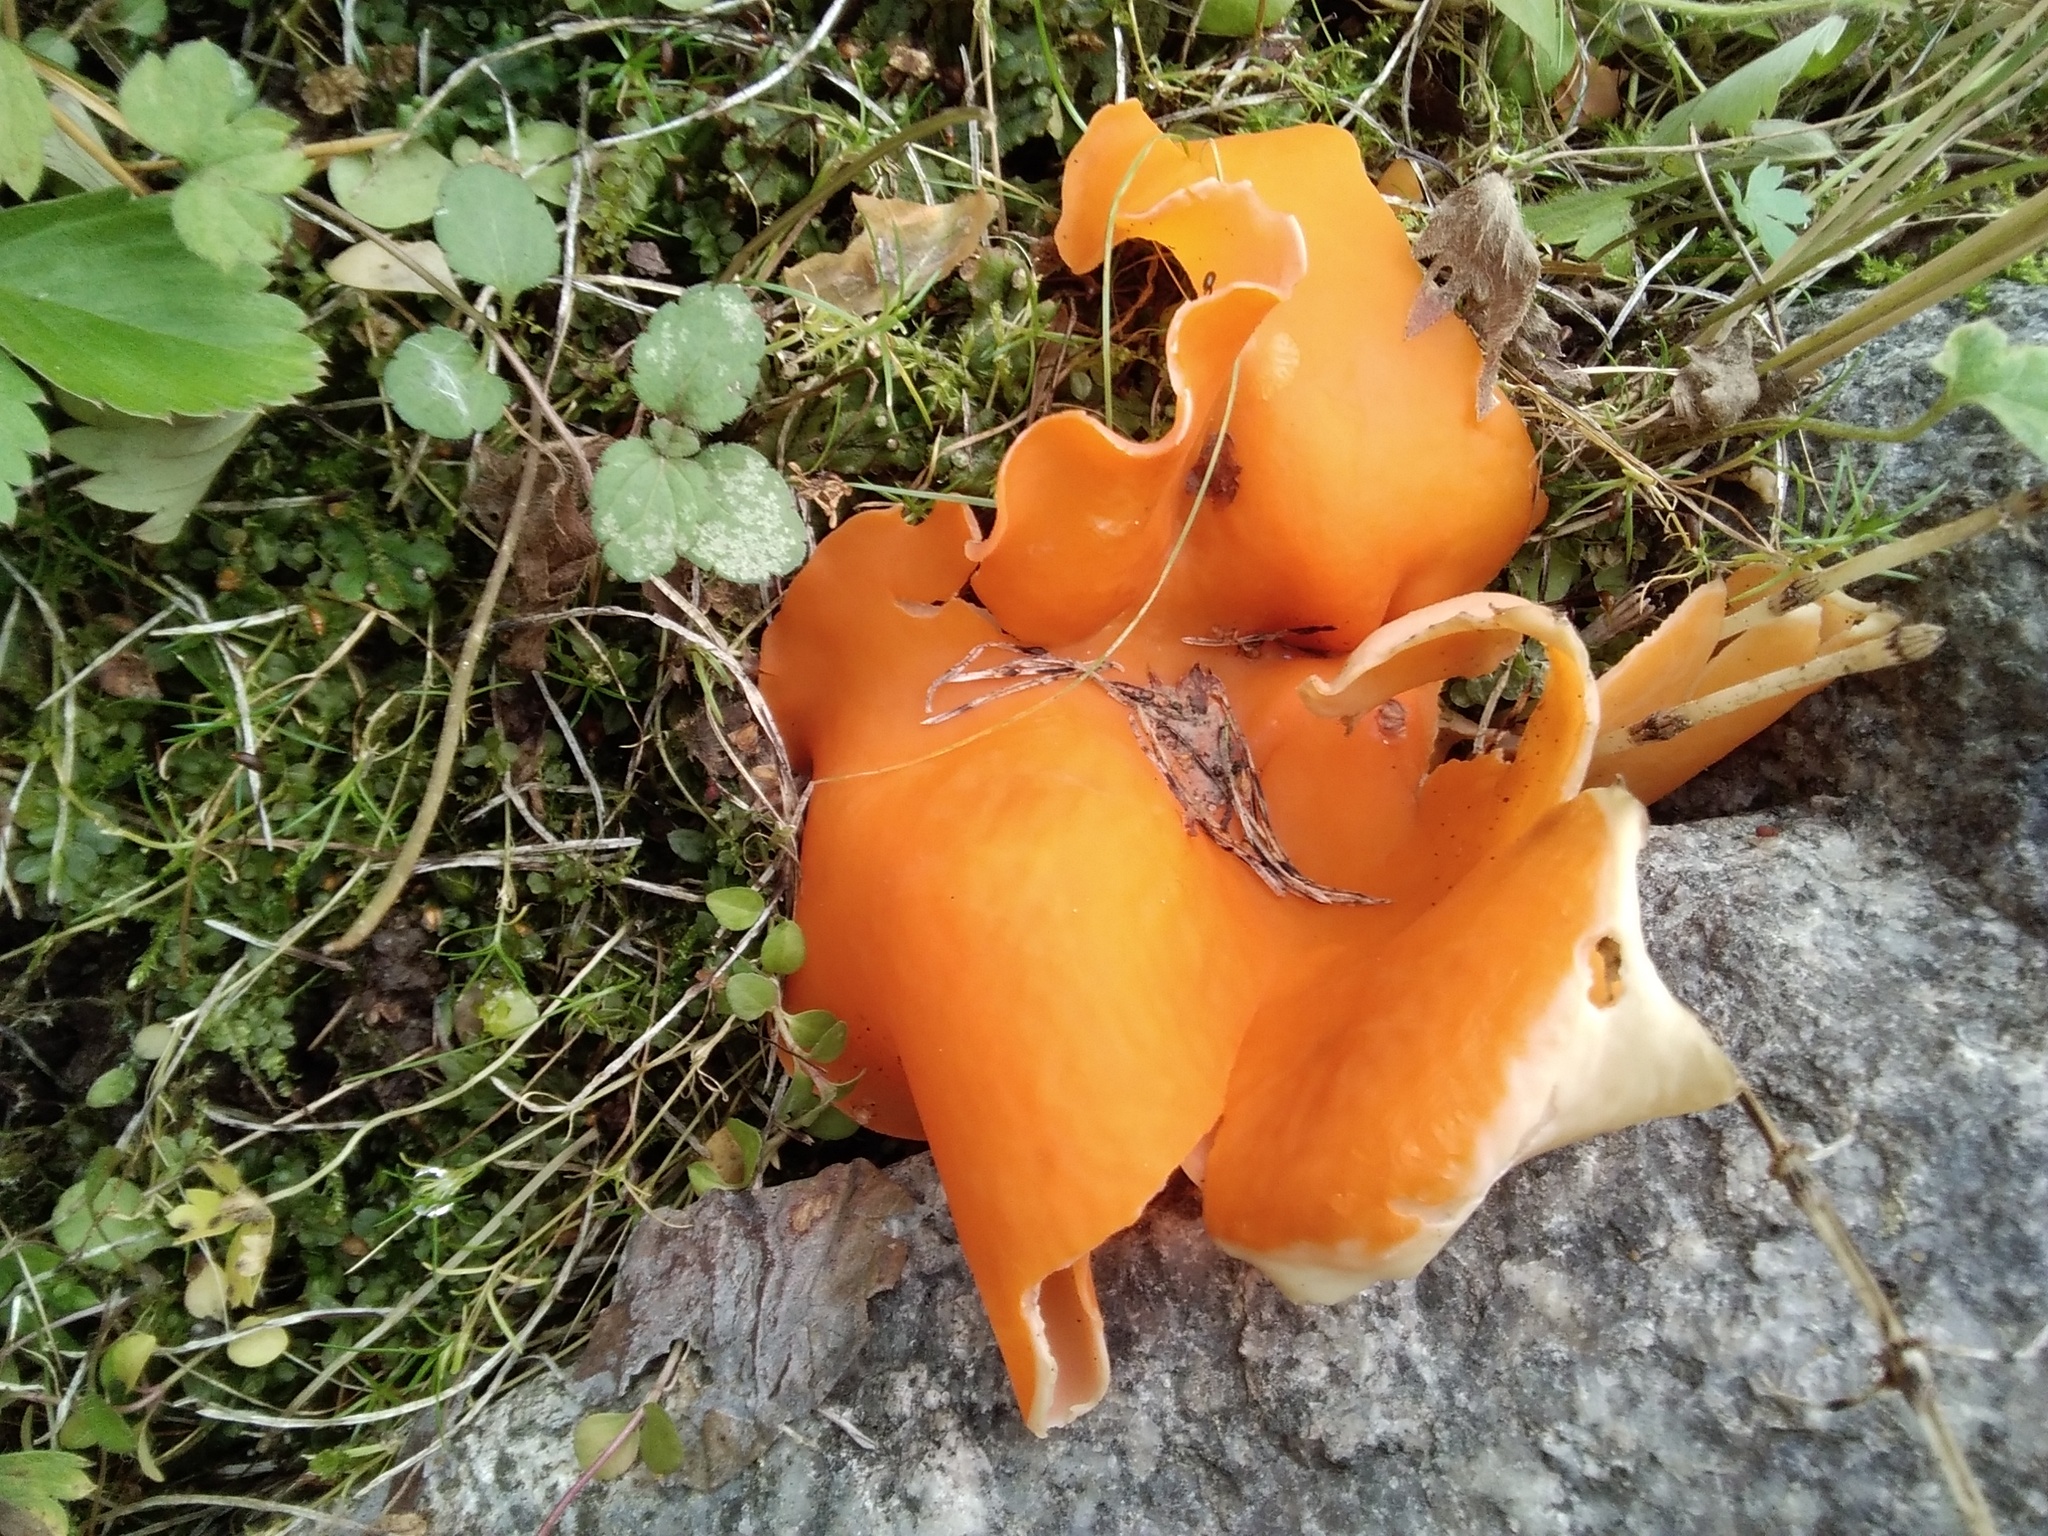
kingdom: Fungi
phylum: Ascomycota
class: Pezizomycetes
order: Pezizales
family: Pyronemataceae
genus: Aleuria
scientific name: Aleuria aurantia
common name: Orange peel fungus
